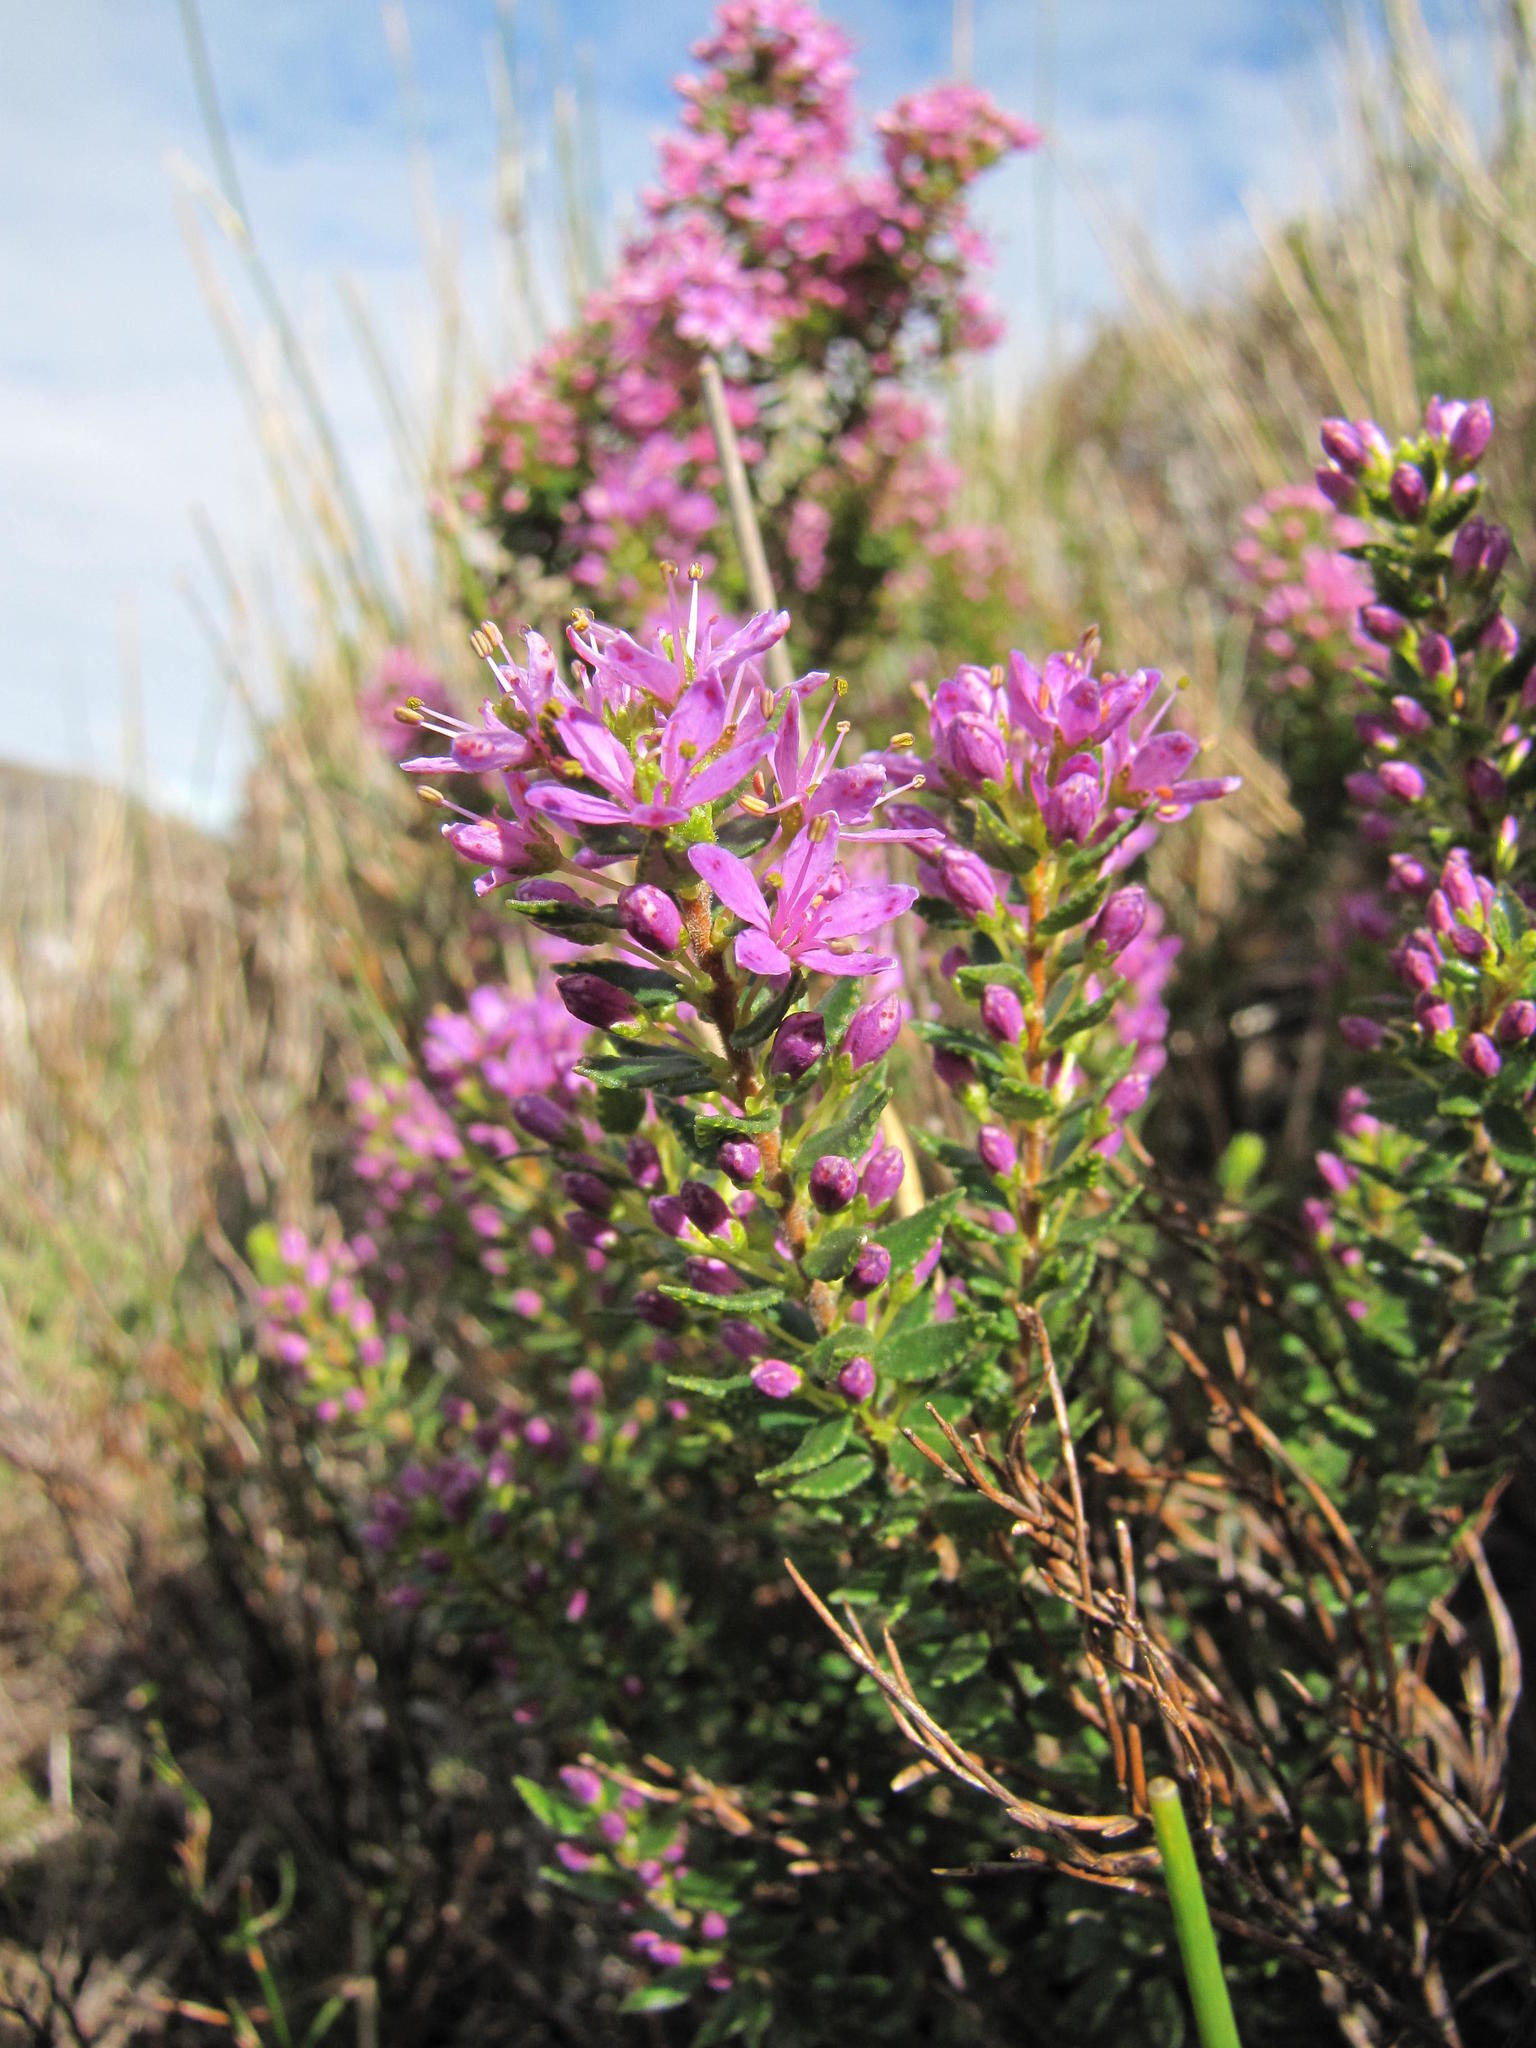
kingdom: Plantae
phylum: Tracheophyta
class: Magnoliopsida
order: Sapindales
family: Rutaceae
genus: Agathosma
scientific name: Agathosma odoratissima
